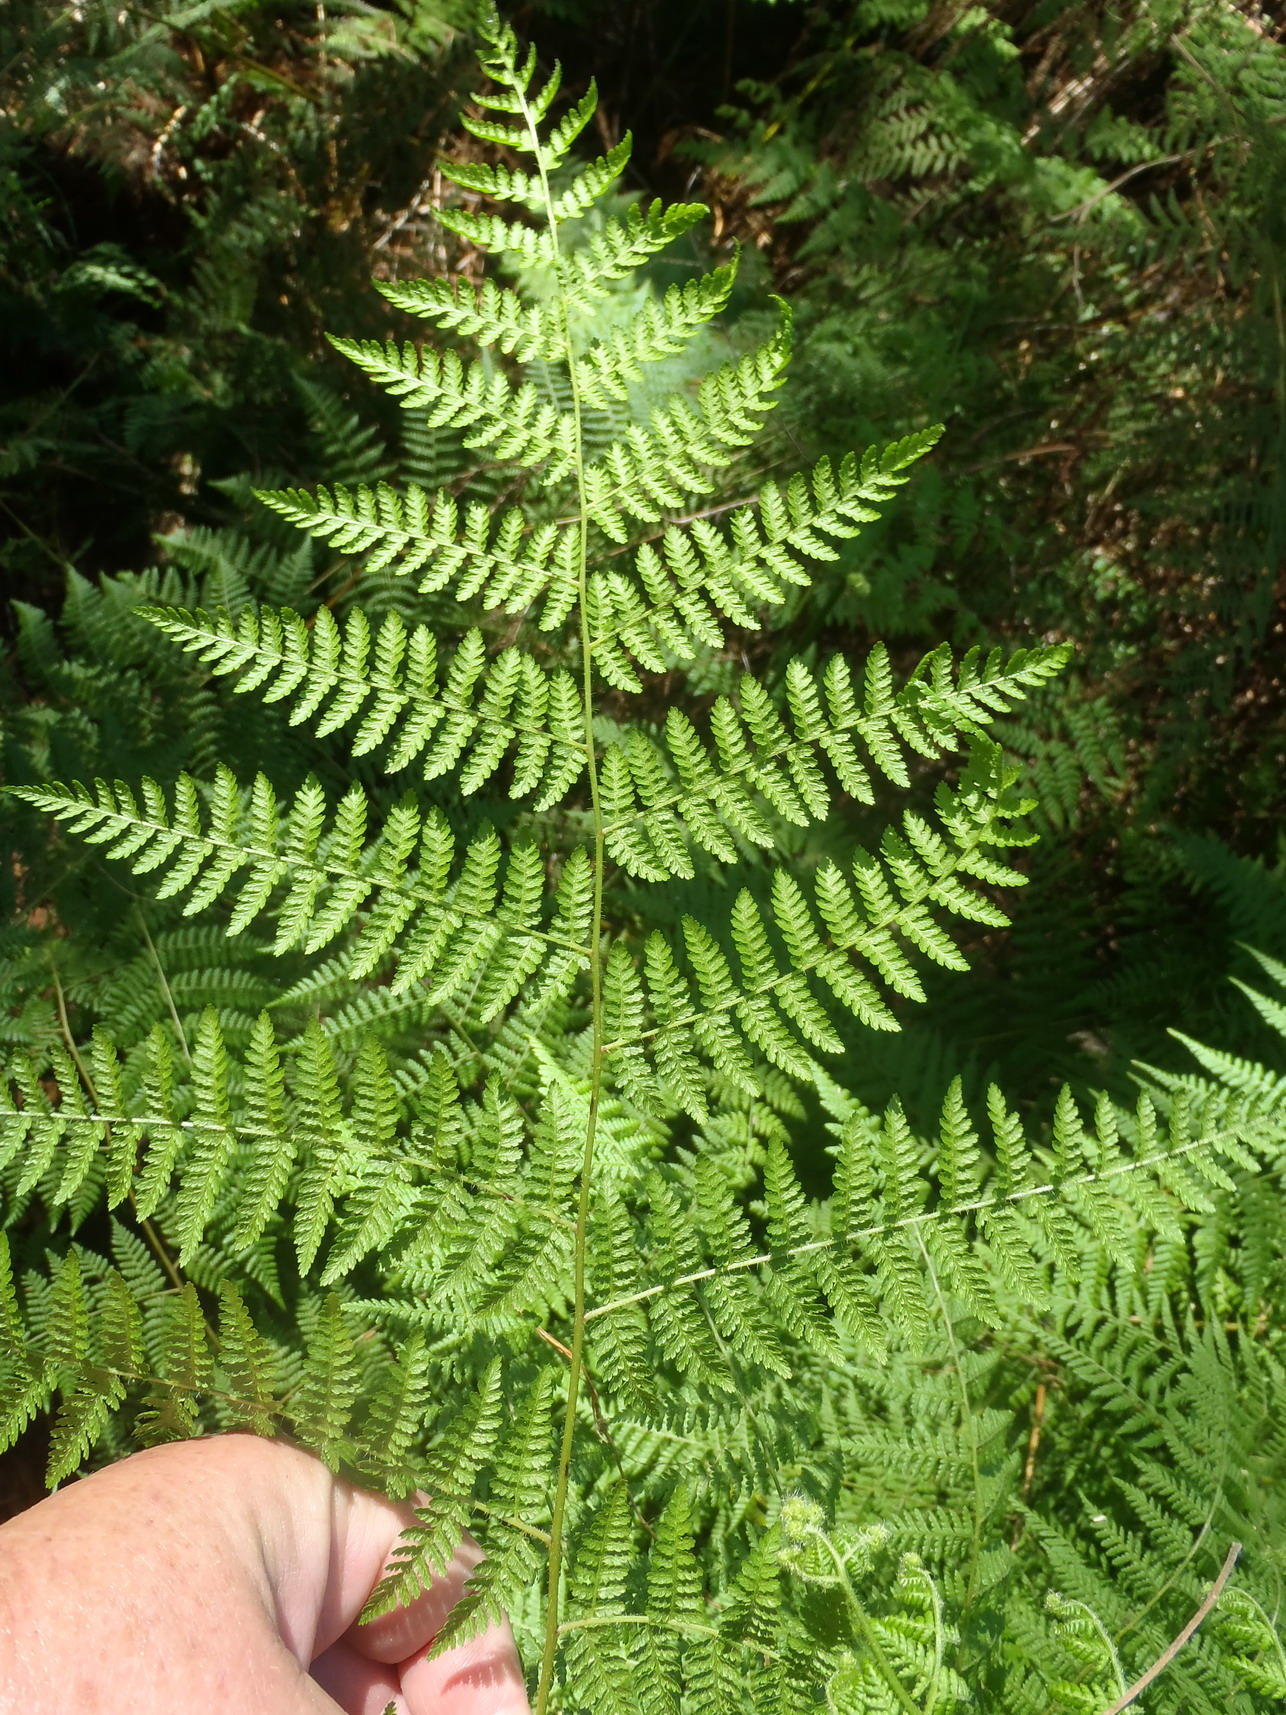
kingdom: Plantae
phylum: Tracheophyta
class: Polypodiopsida
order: Polypodiales
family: Dennstaedtiaceae
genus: Hypolepis
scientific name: Hypolepis sparsisora
